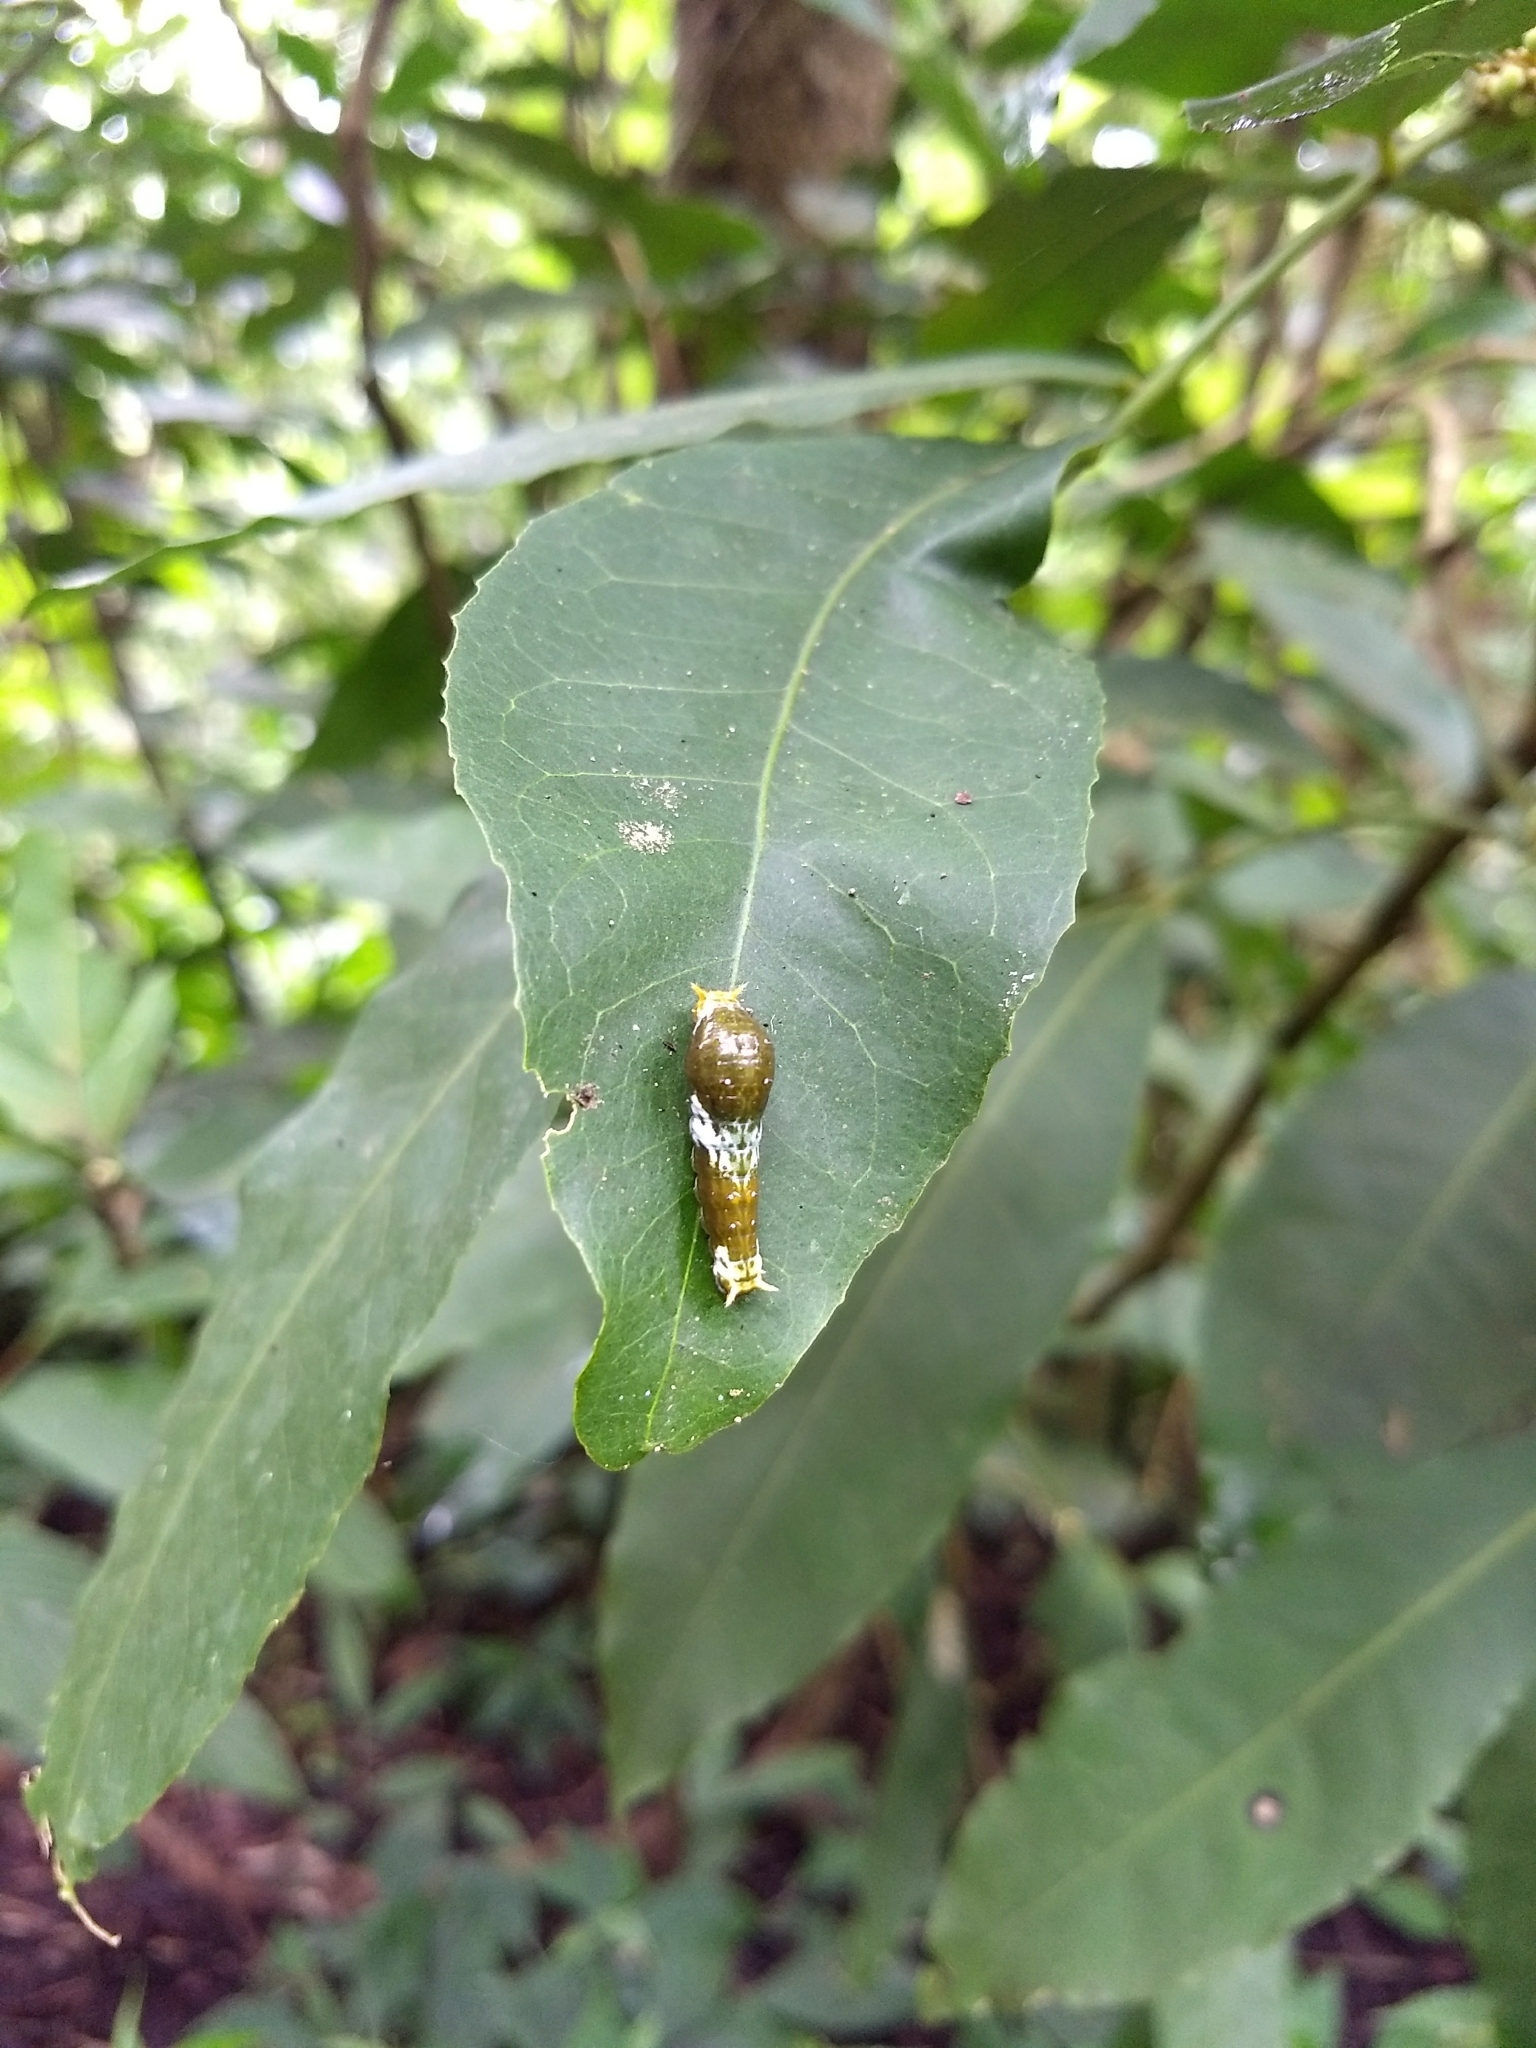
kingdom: Animalia
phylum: Arthropoda
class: Insecta
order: Lepidoptera
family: Papilionidae
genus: Papilio
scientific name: Papilio polytes
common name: Common mormon
